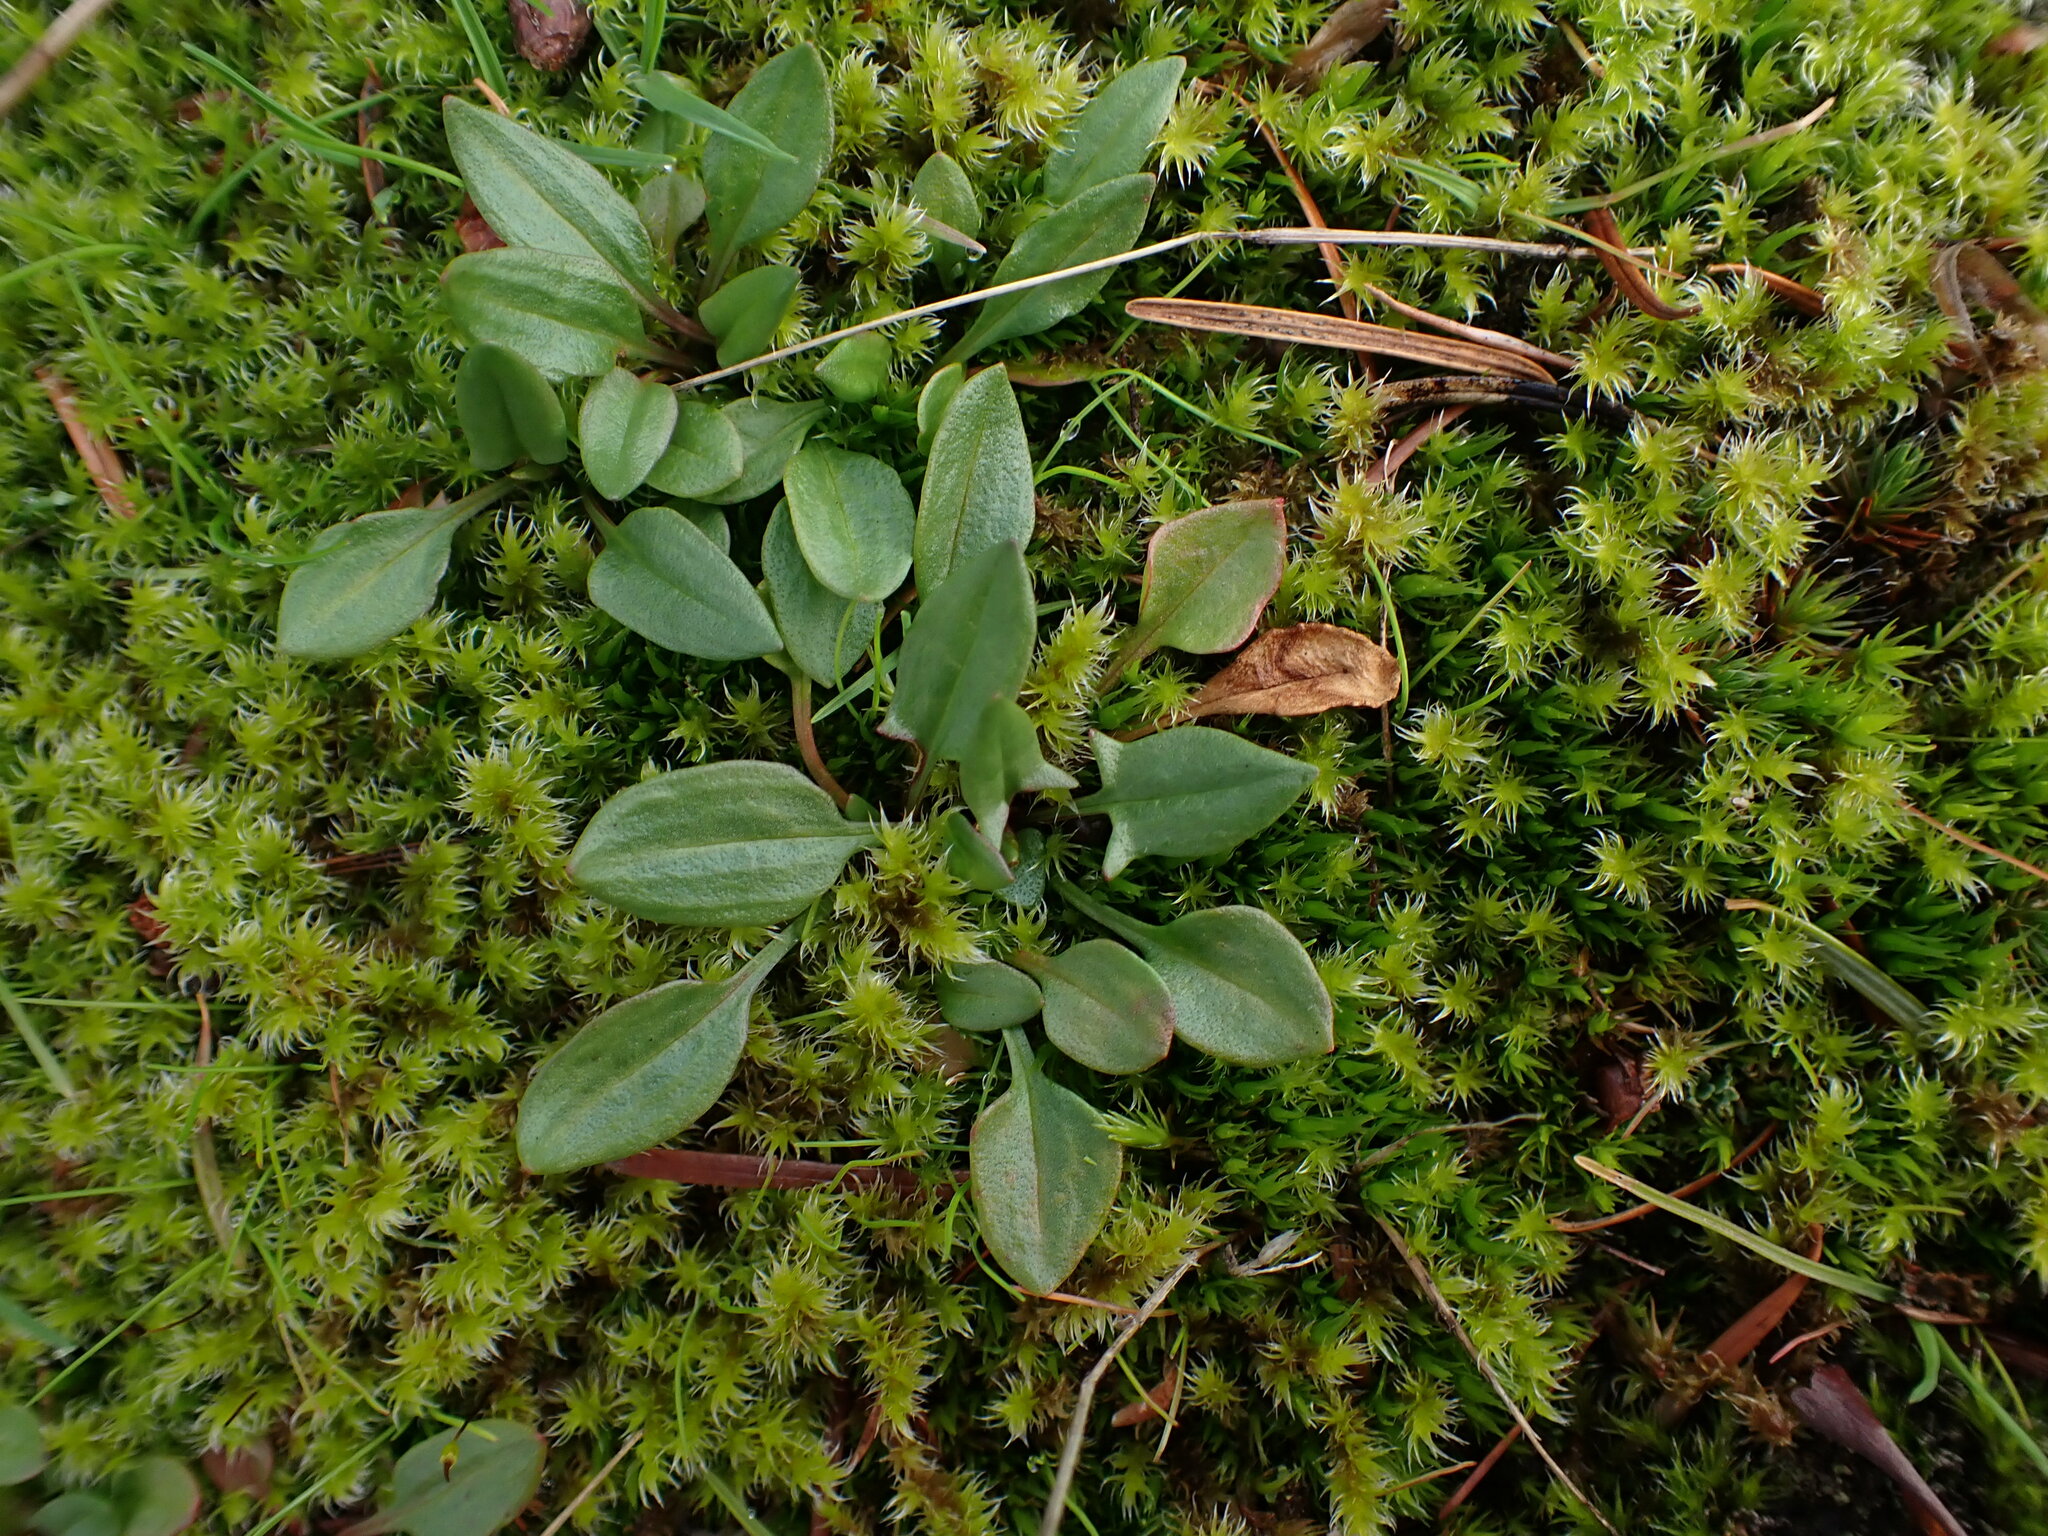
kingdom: Plantae
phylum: Tracheophyta
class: Magnoliopsida
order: Caryophyllales
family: Polygonaceae
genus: Rumex
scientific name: Rumex acetosella
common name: Common sheep sorrel
